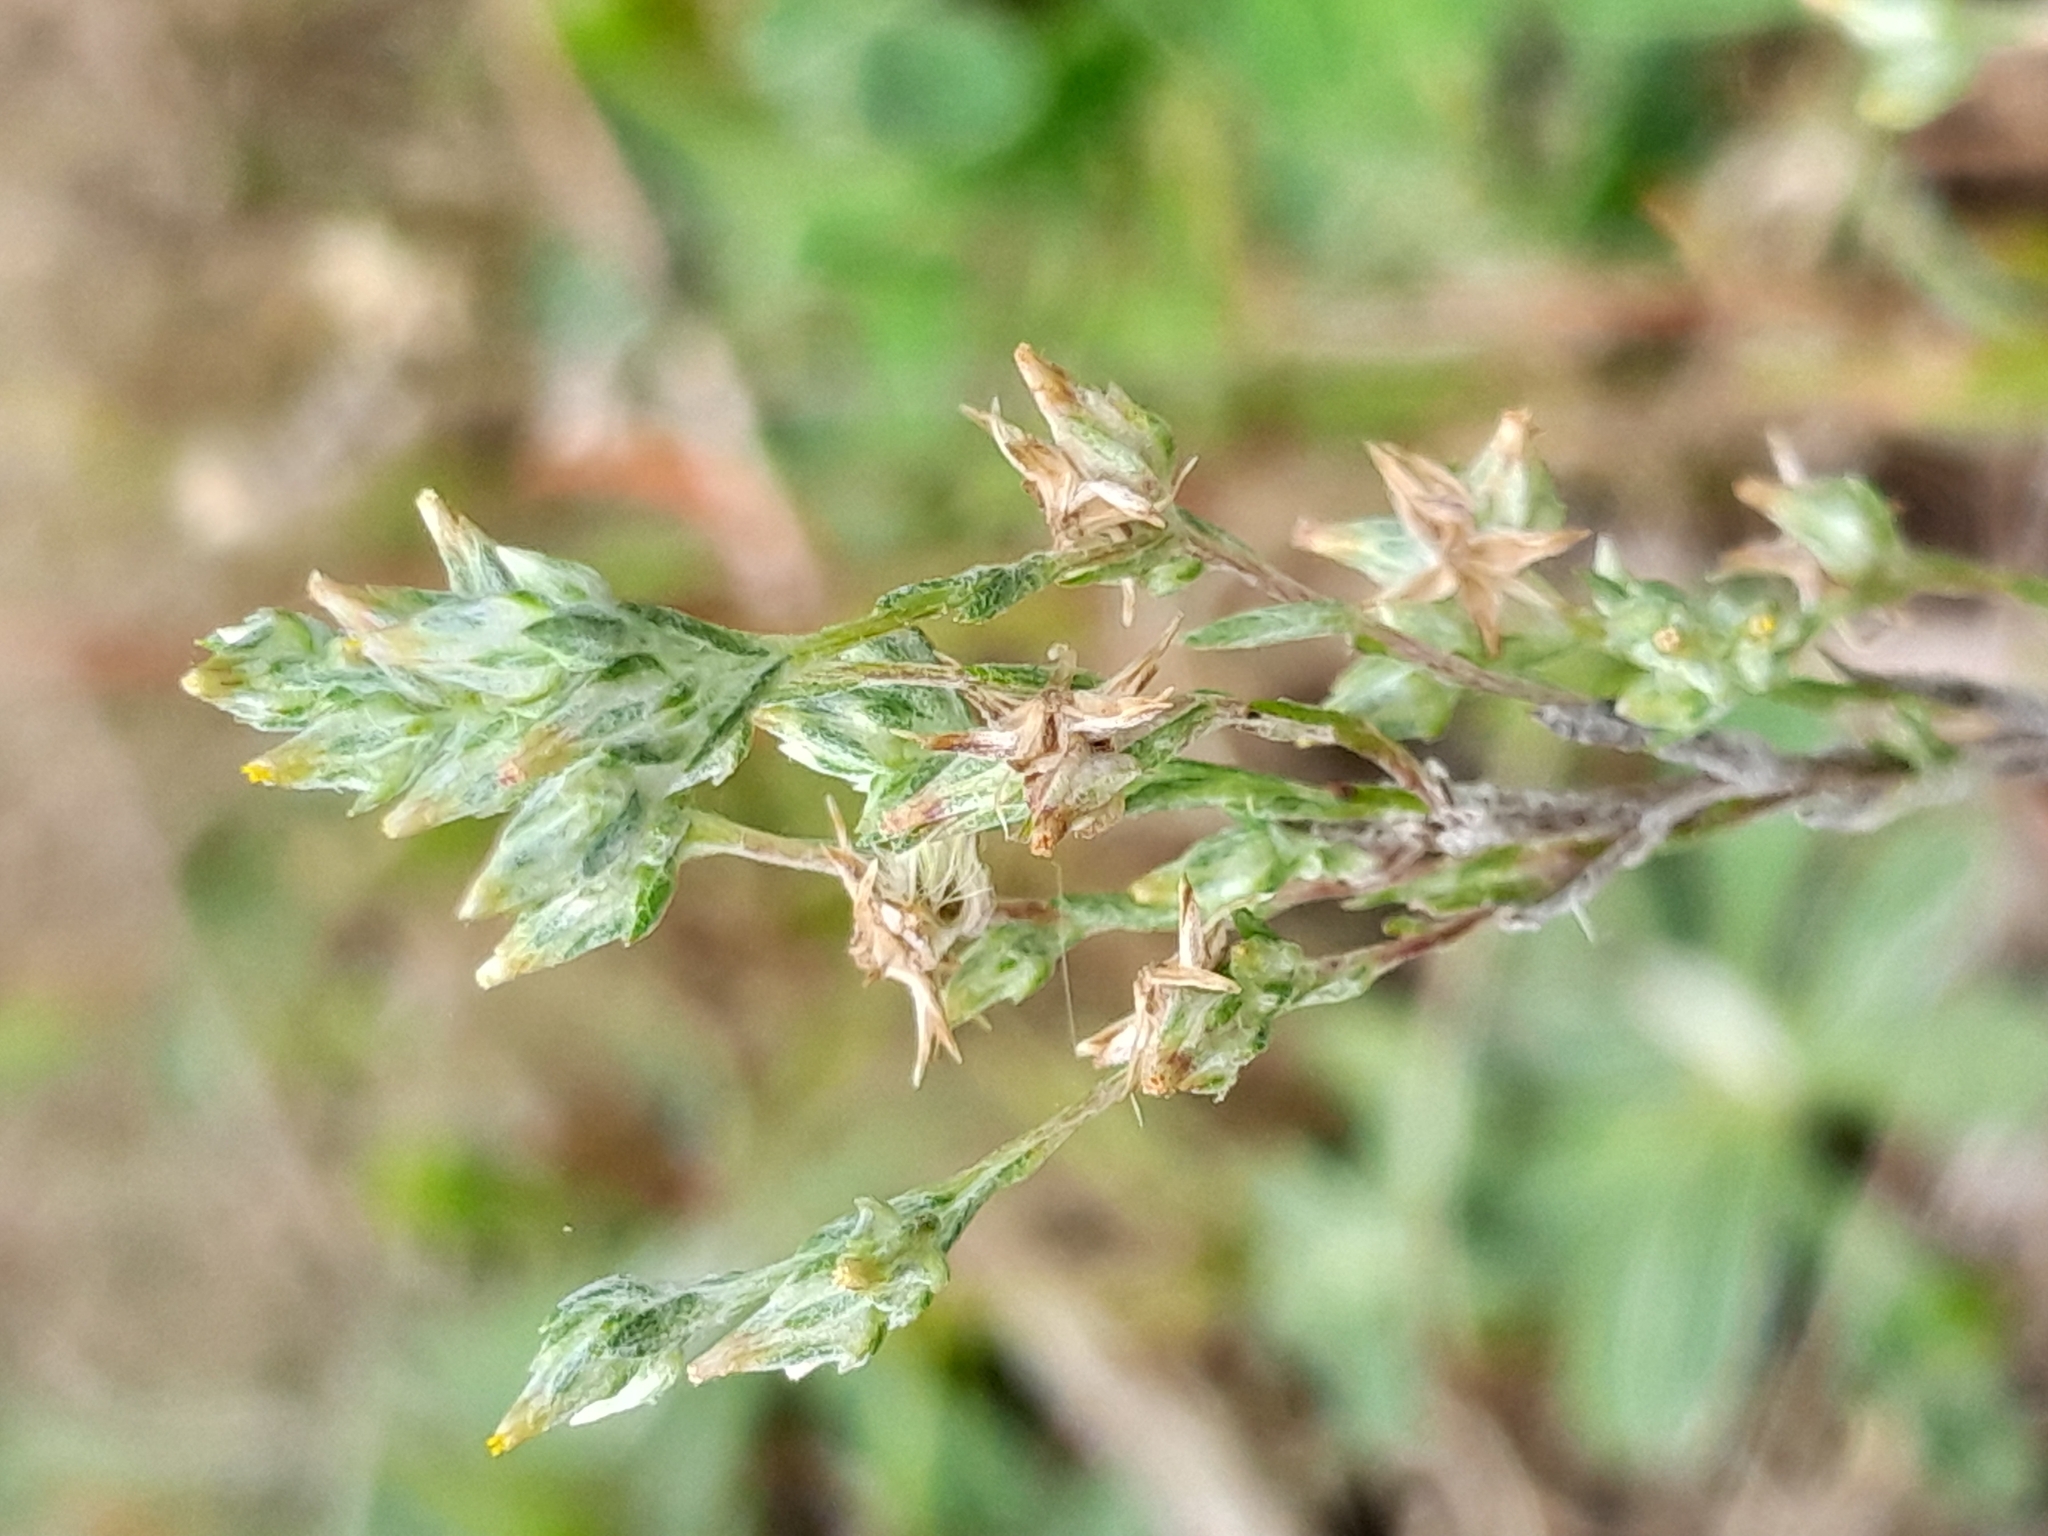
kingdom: Plantae
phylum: Tracheophyta
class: Magnoliopsida
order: Asterales
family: Asteraceae
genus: Logfia
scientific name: Logfia minima
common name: Little cottonrose
